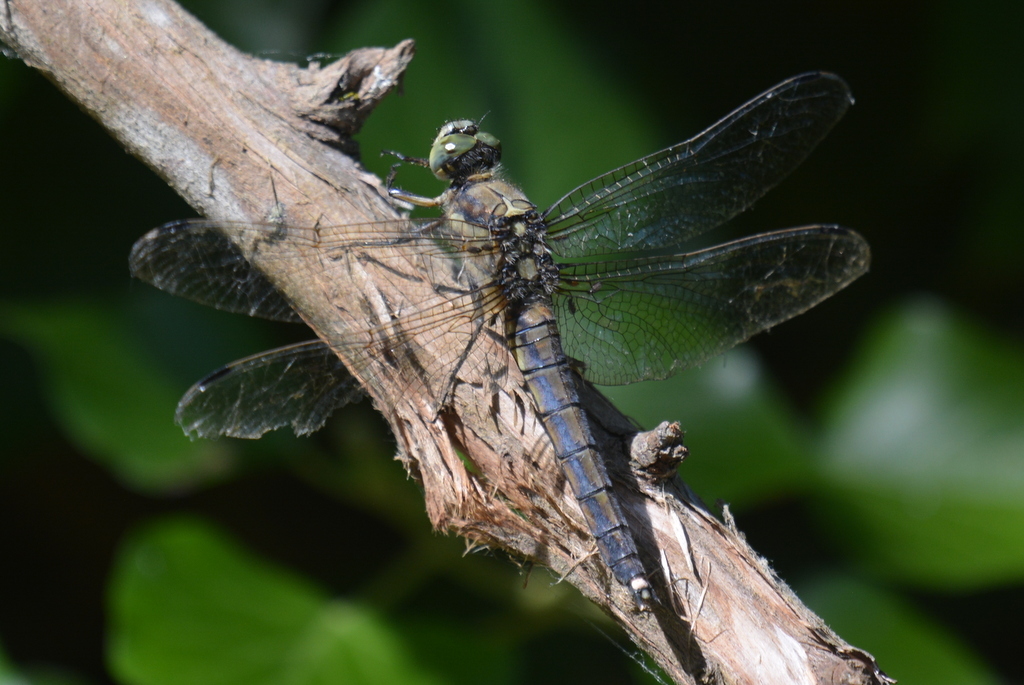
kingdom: Animalia
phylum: Arthropoda
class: Insecta
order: Odonata
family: Libellulidae
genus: Orthetrum
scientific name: Orthetrum cancellatum
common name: Black-tailed skimmer
